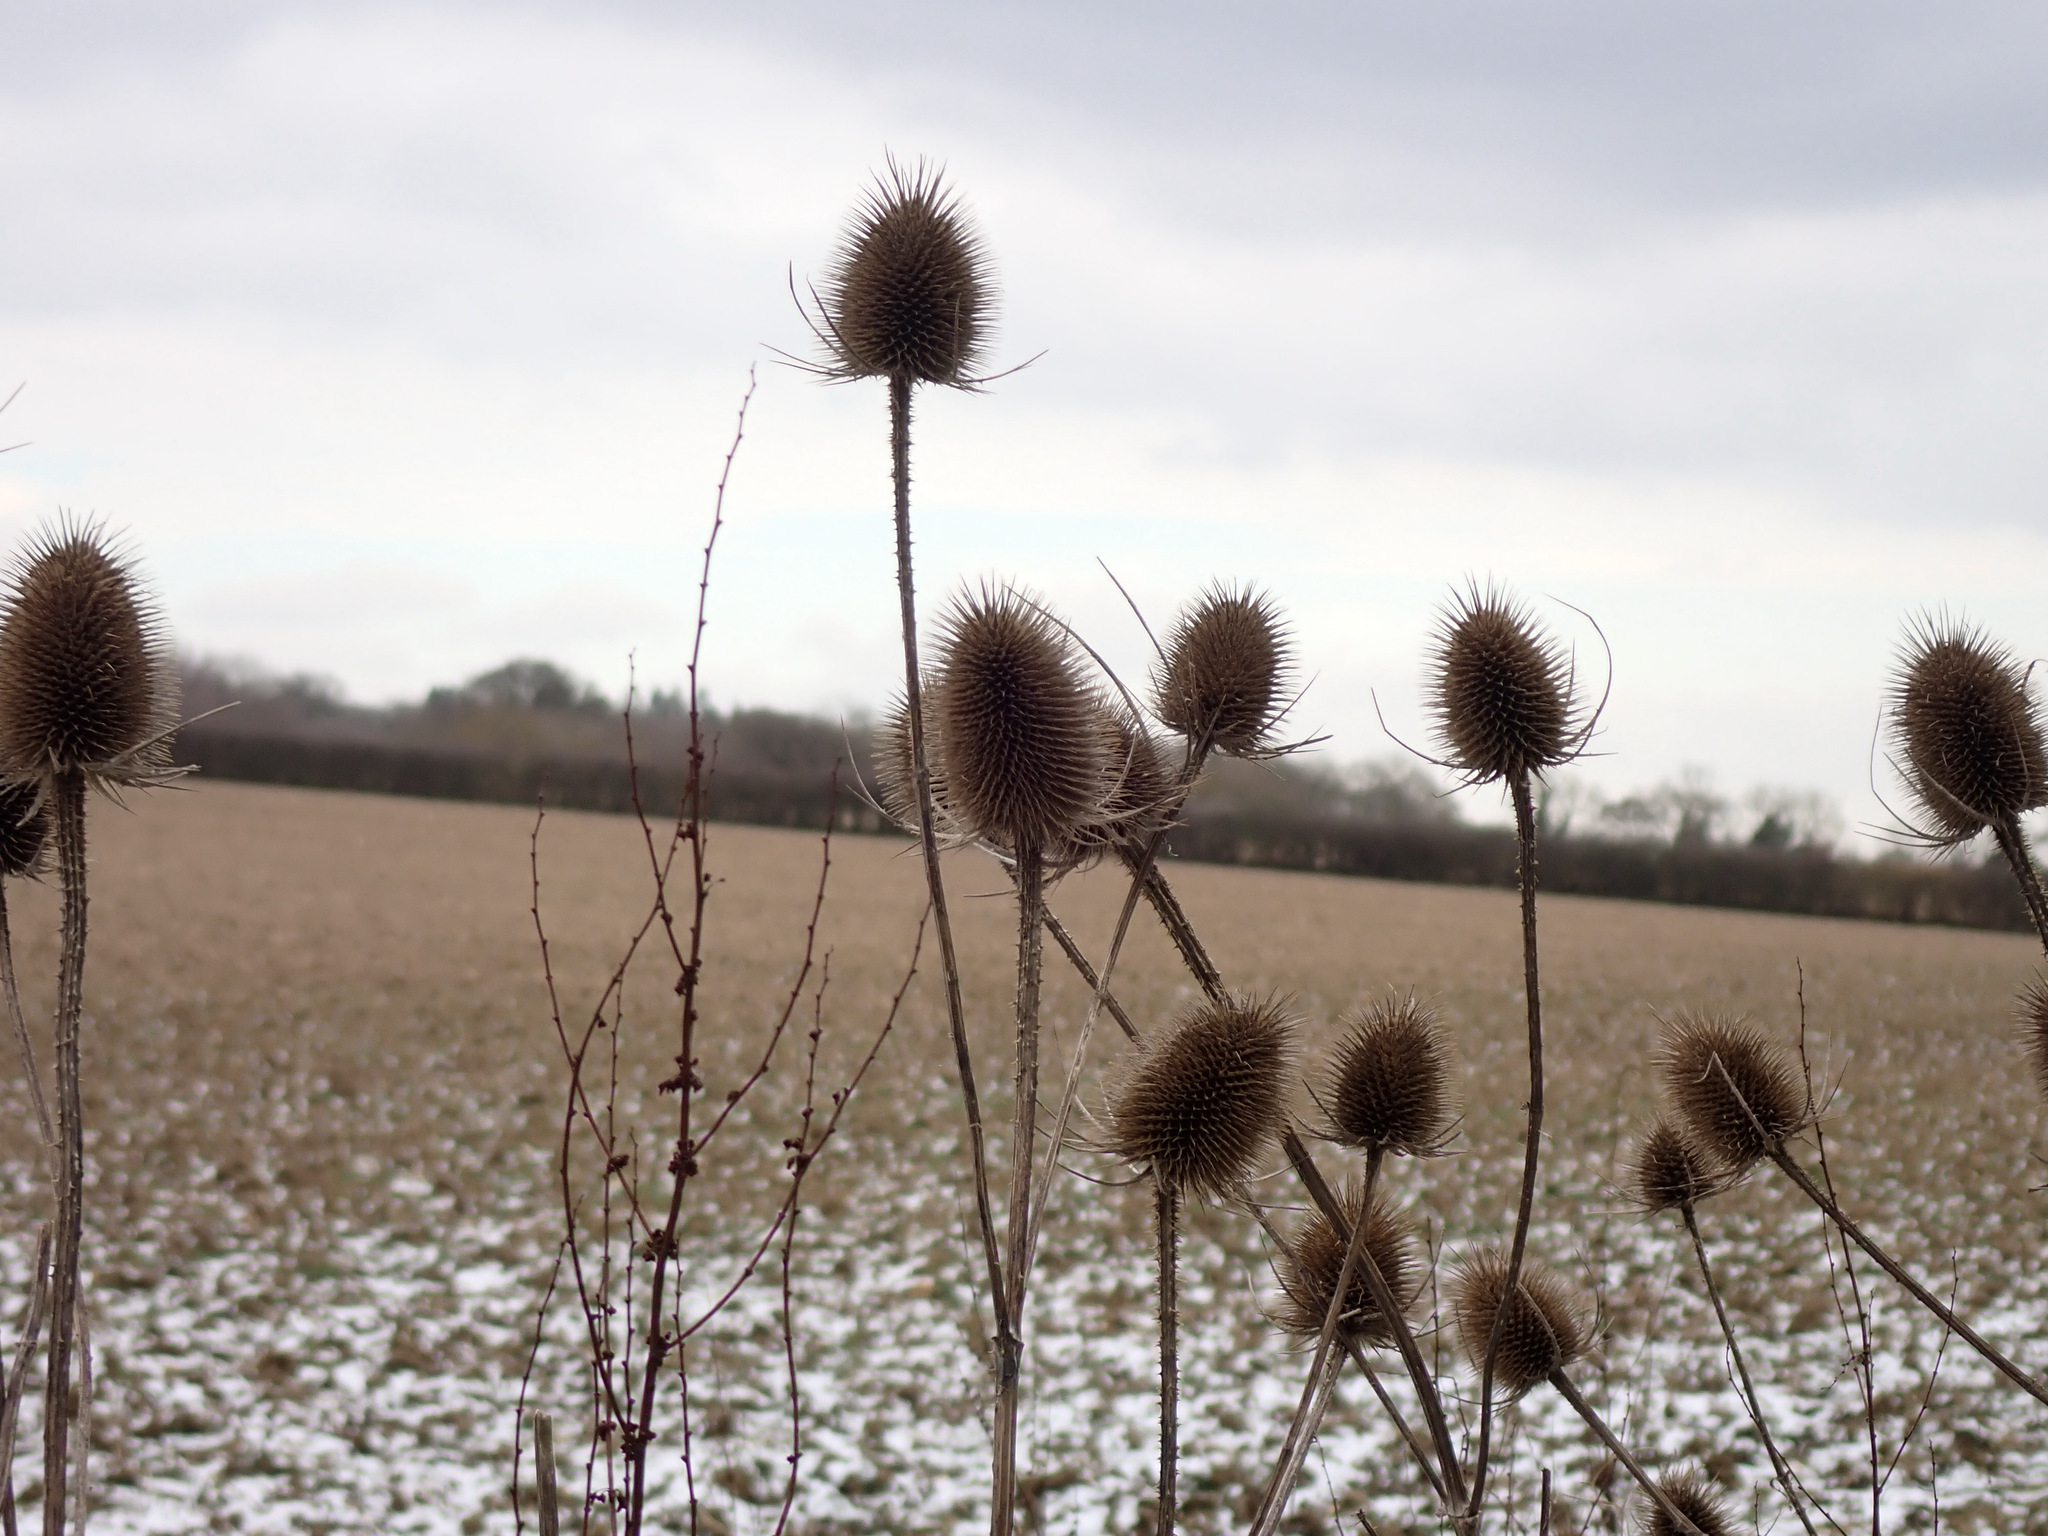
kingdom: Plantae
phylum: Tracheophyta
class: Magnoliopsida
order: Dipsacales
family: Caprifoliaceae
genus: Dipsacus
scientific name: Dipsacus fullonum
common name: Teasel
